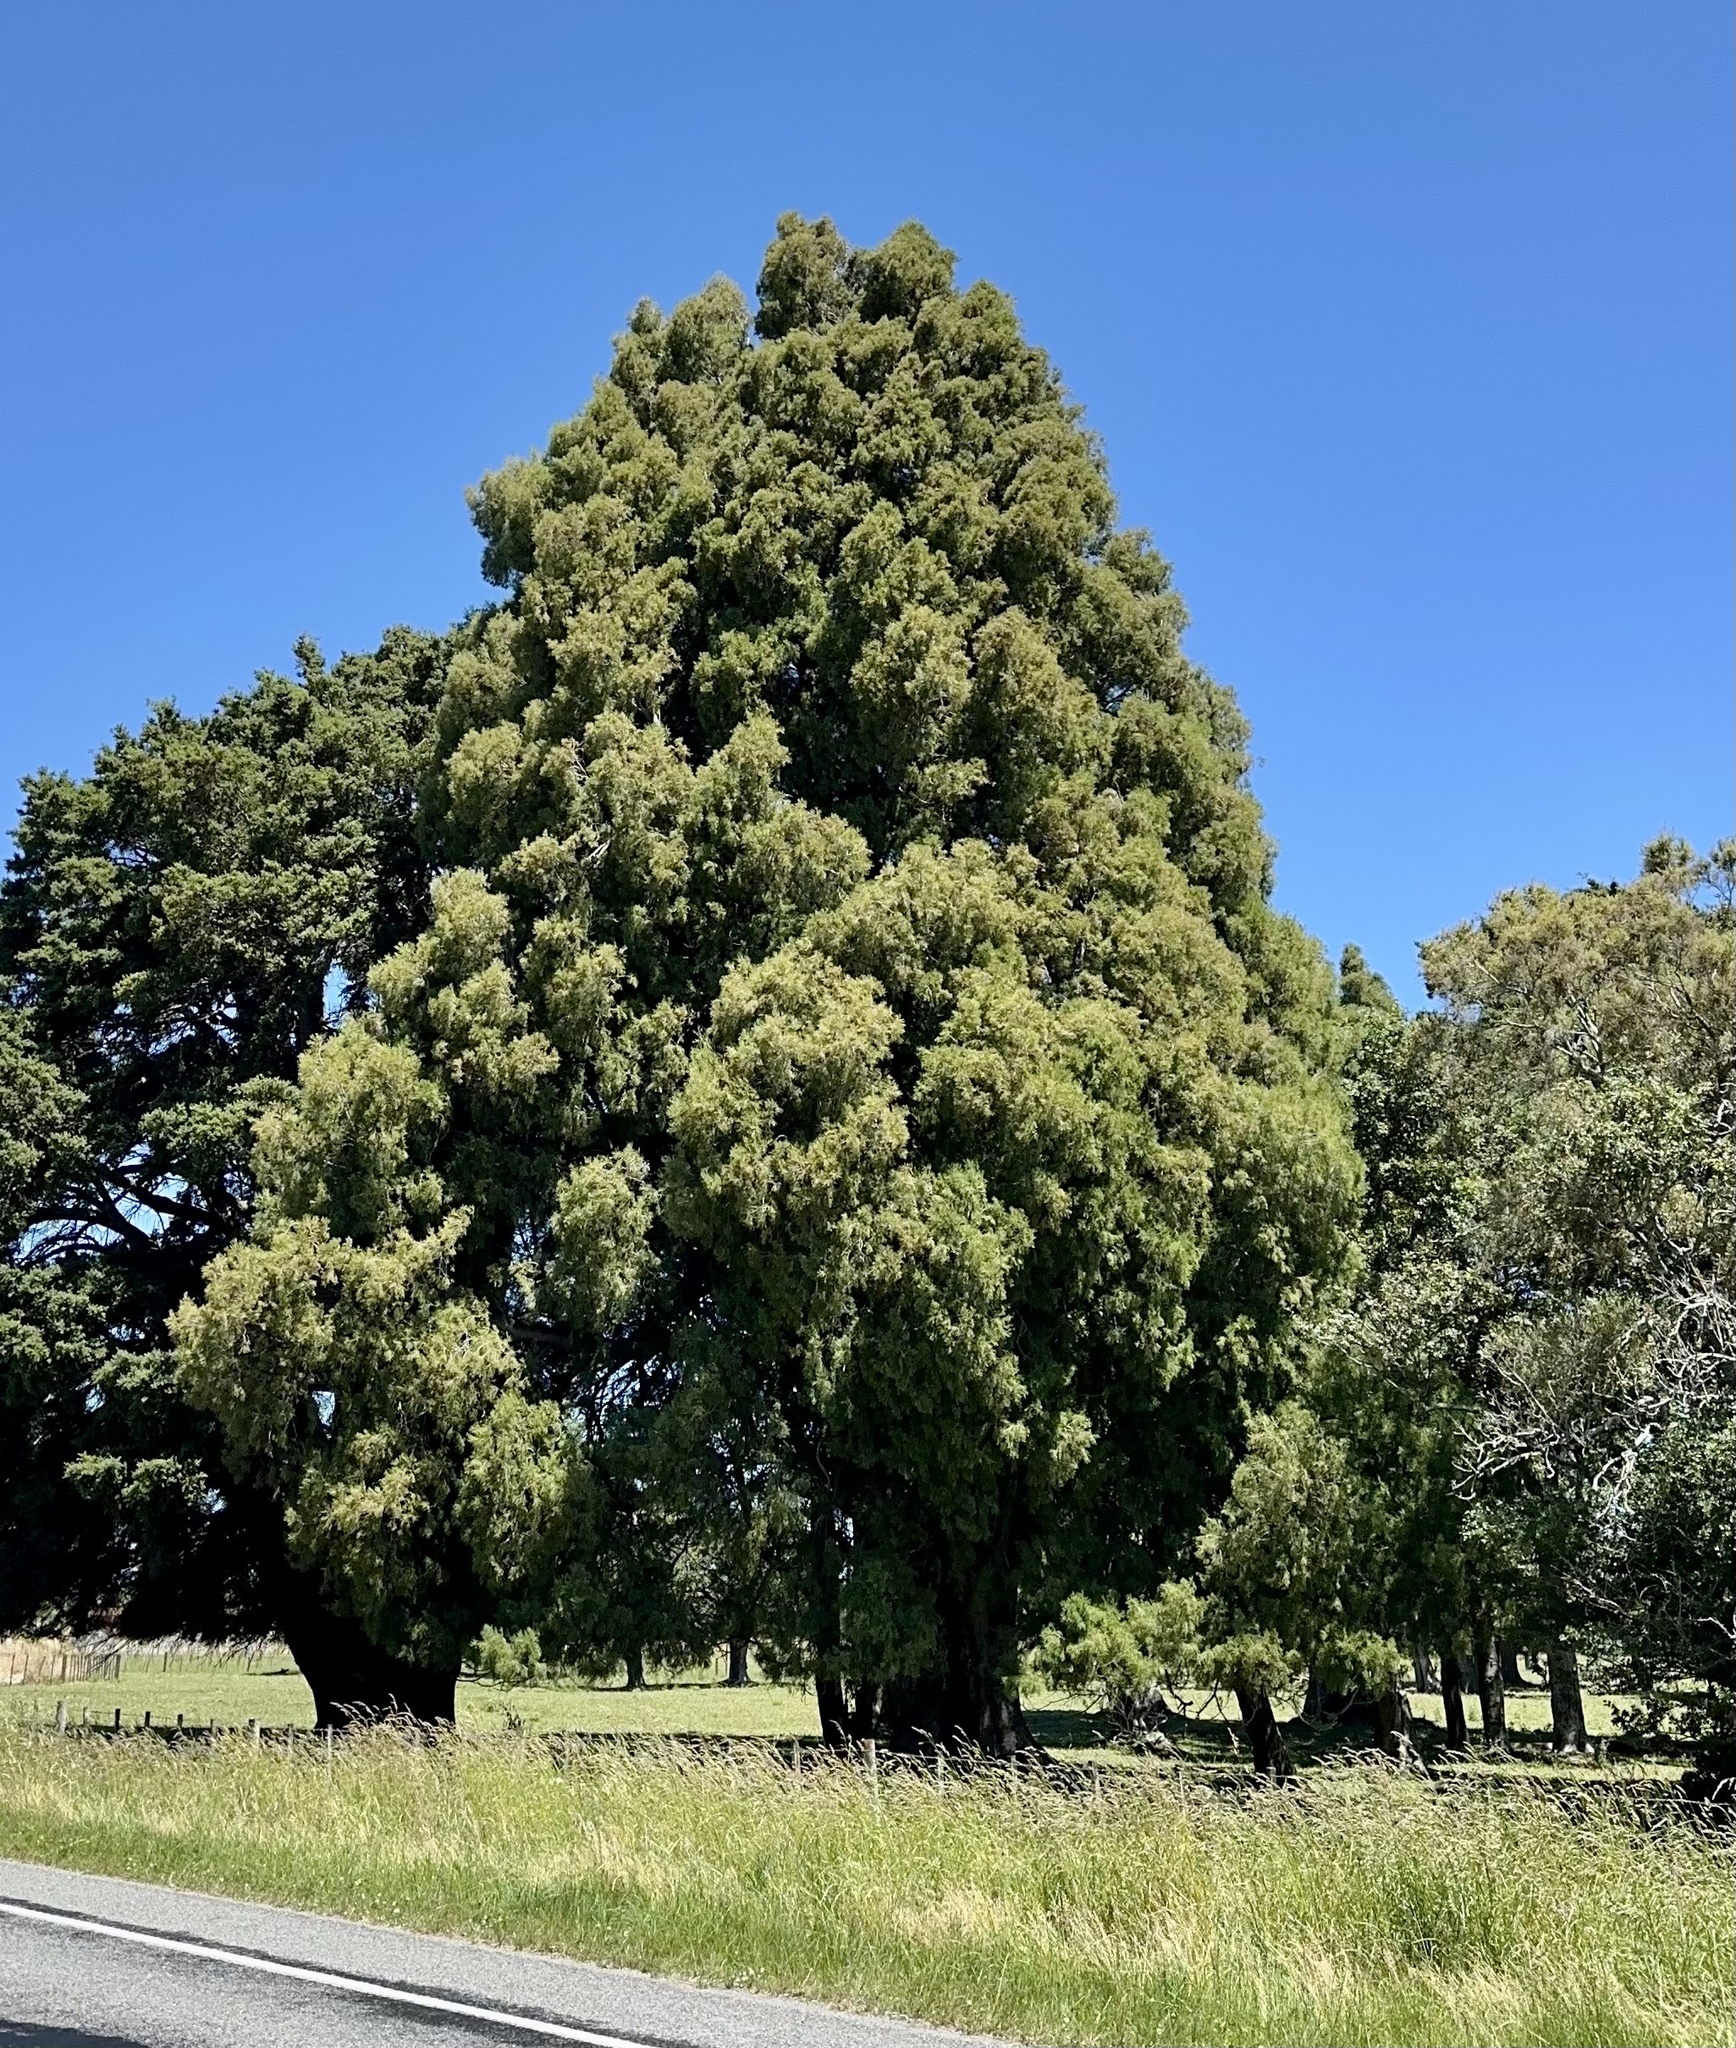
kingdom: Plantae
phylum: Tracheophyta
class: Pinopsida
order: Pinales
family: Podocarpaceae
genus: Dacrycarpus
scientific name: Dacrycarpus dacrydioides
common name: White pine
